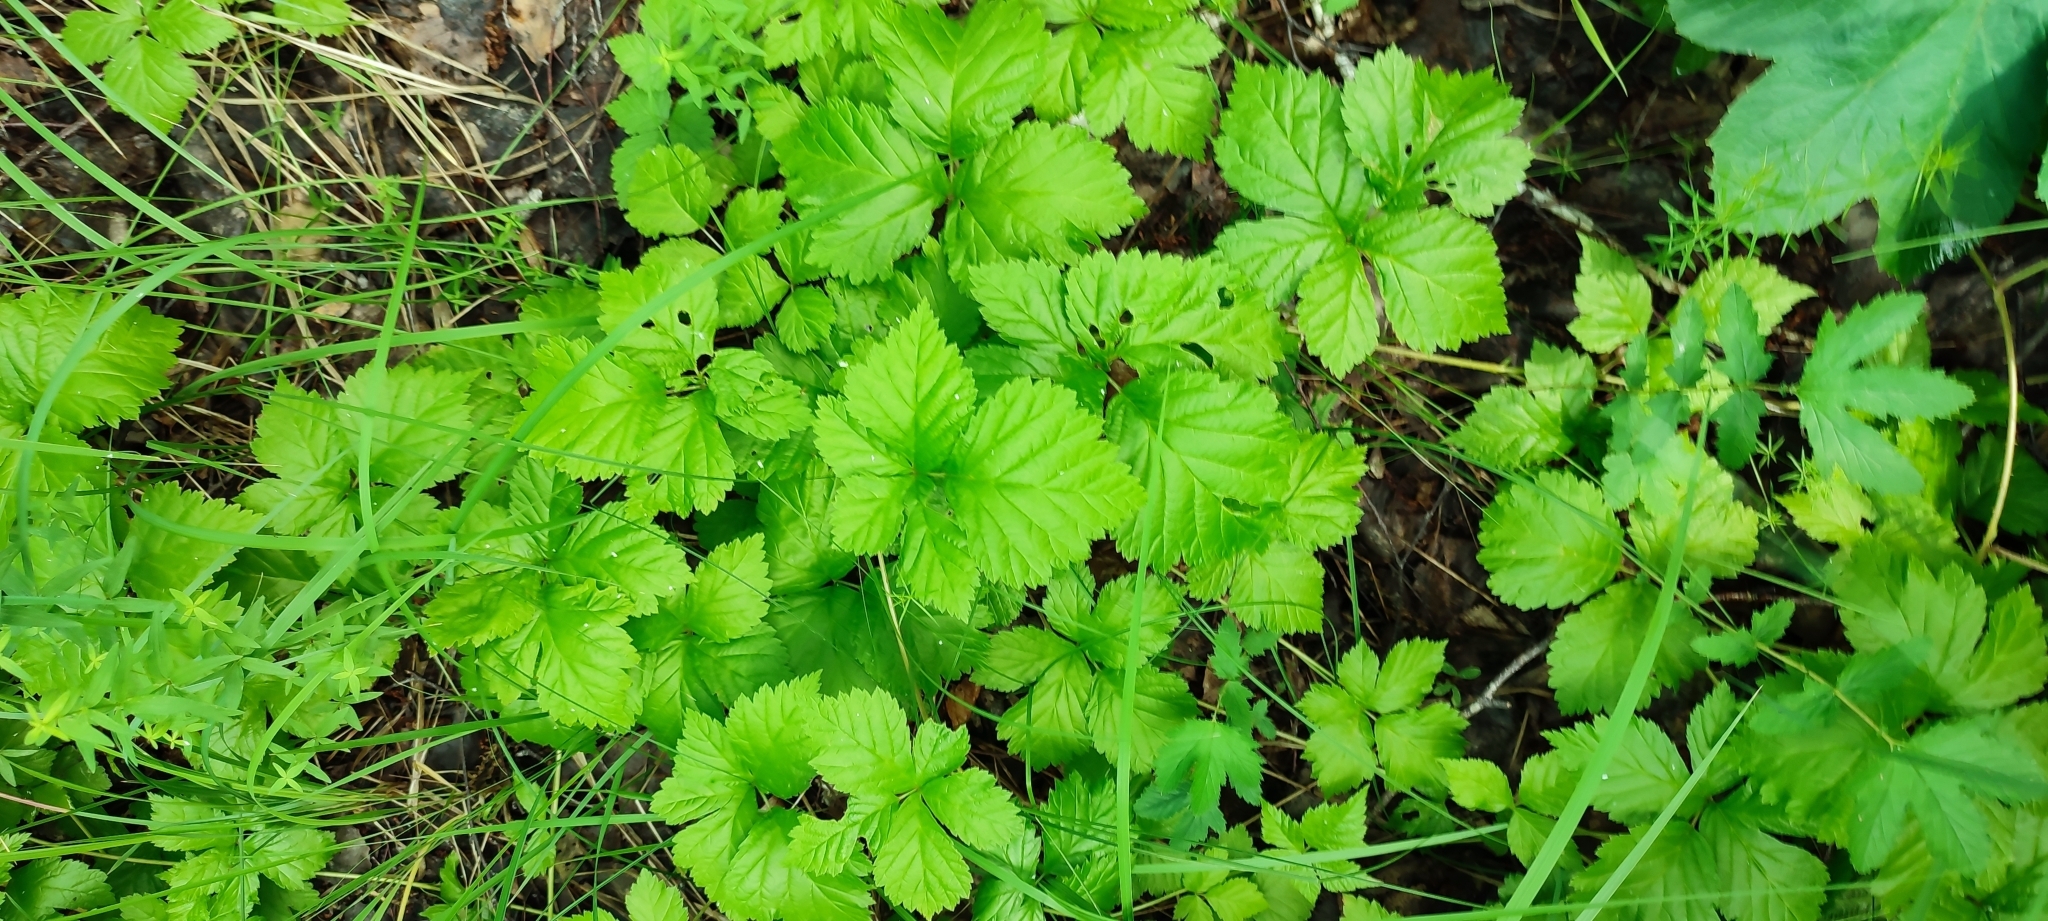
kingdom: Plantae
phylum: Tracheophyta
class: Magnoliopsida
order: Rosales
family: Rosaceae
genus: Rubus
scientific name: Rubus saxatilis
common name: Stone bramble
